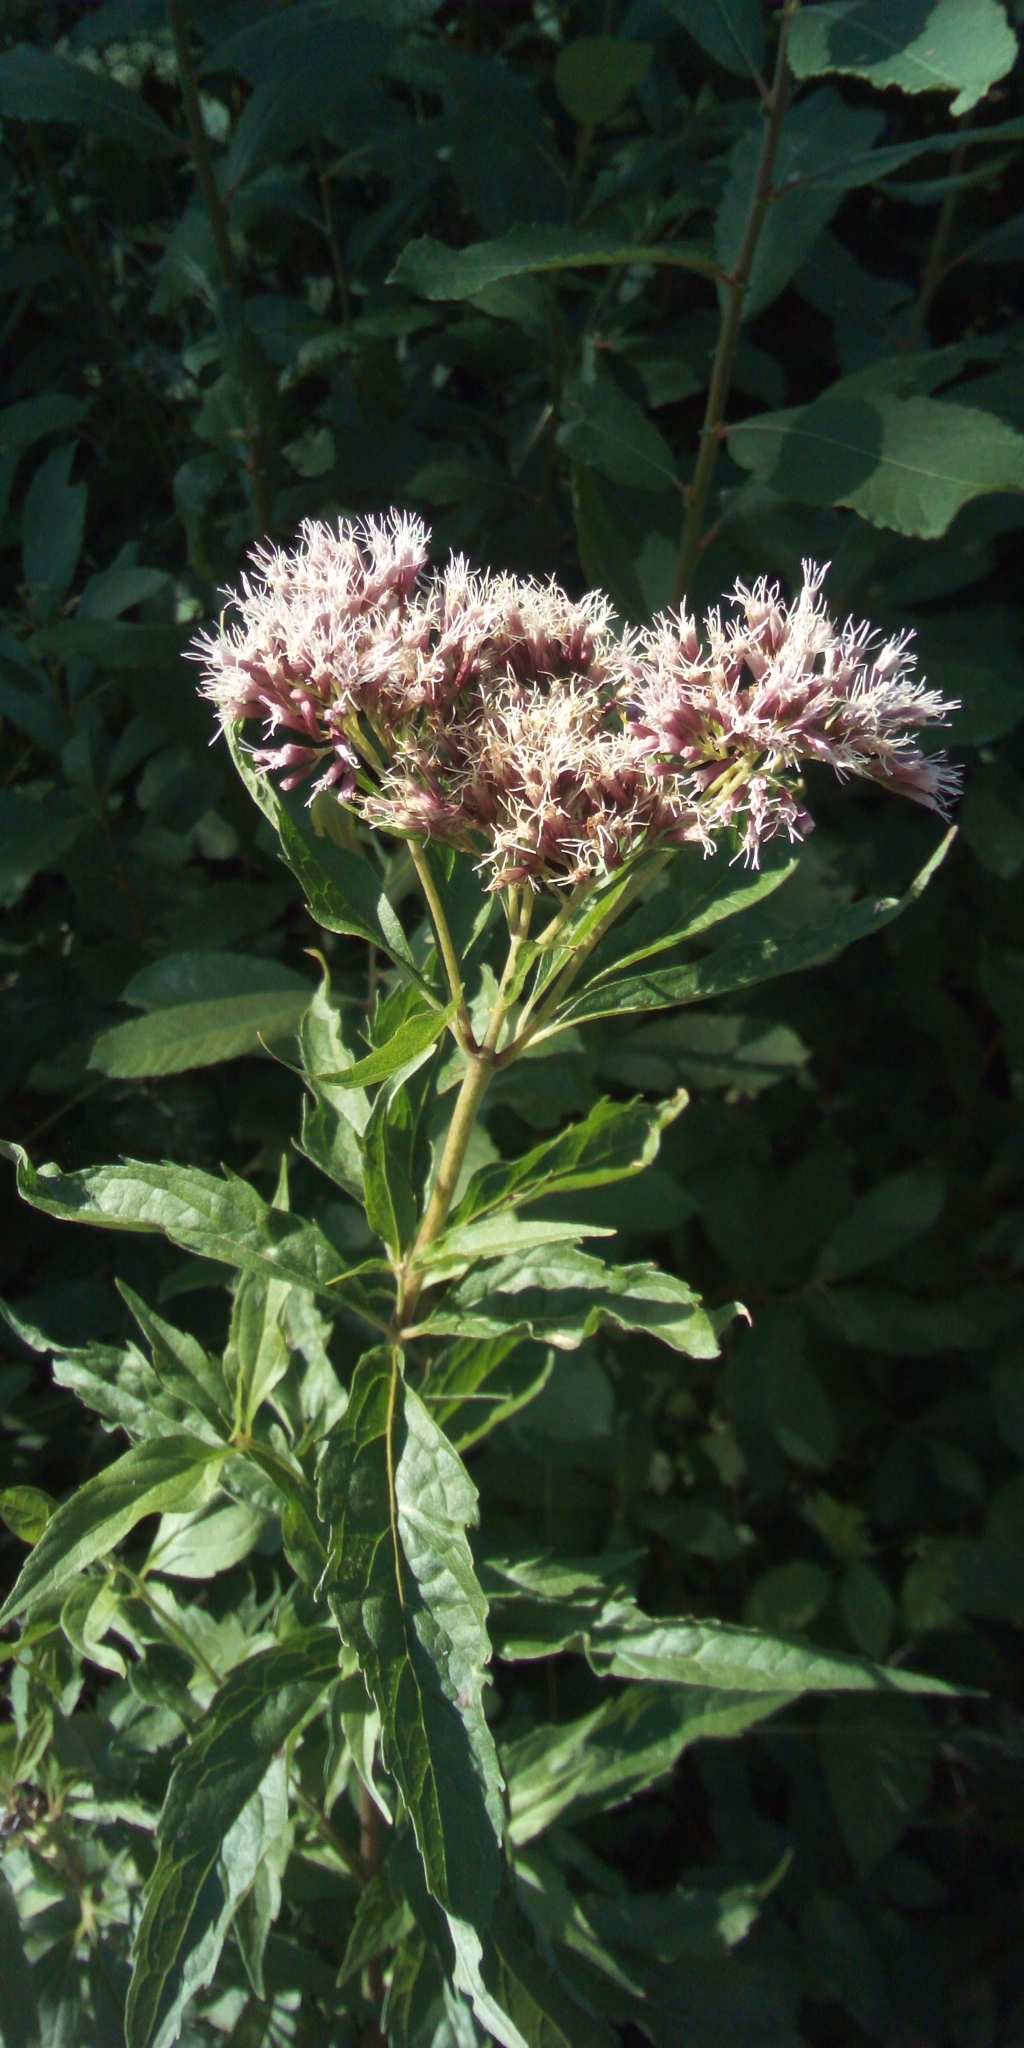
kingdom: Plantae
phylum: Tracheophyta
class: Magnoliopsida
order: Asterales
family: Asteraceae
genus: Eupatorium
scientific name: Eupatorium cannabinum
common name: Hemp-agrimony
